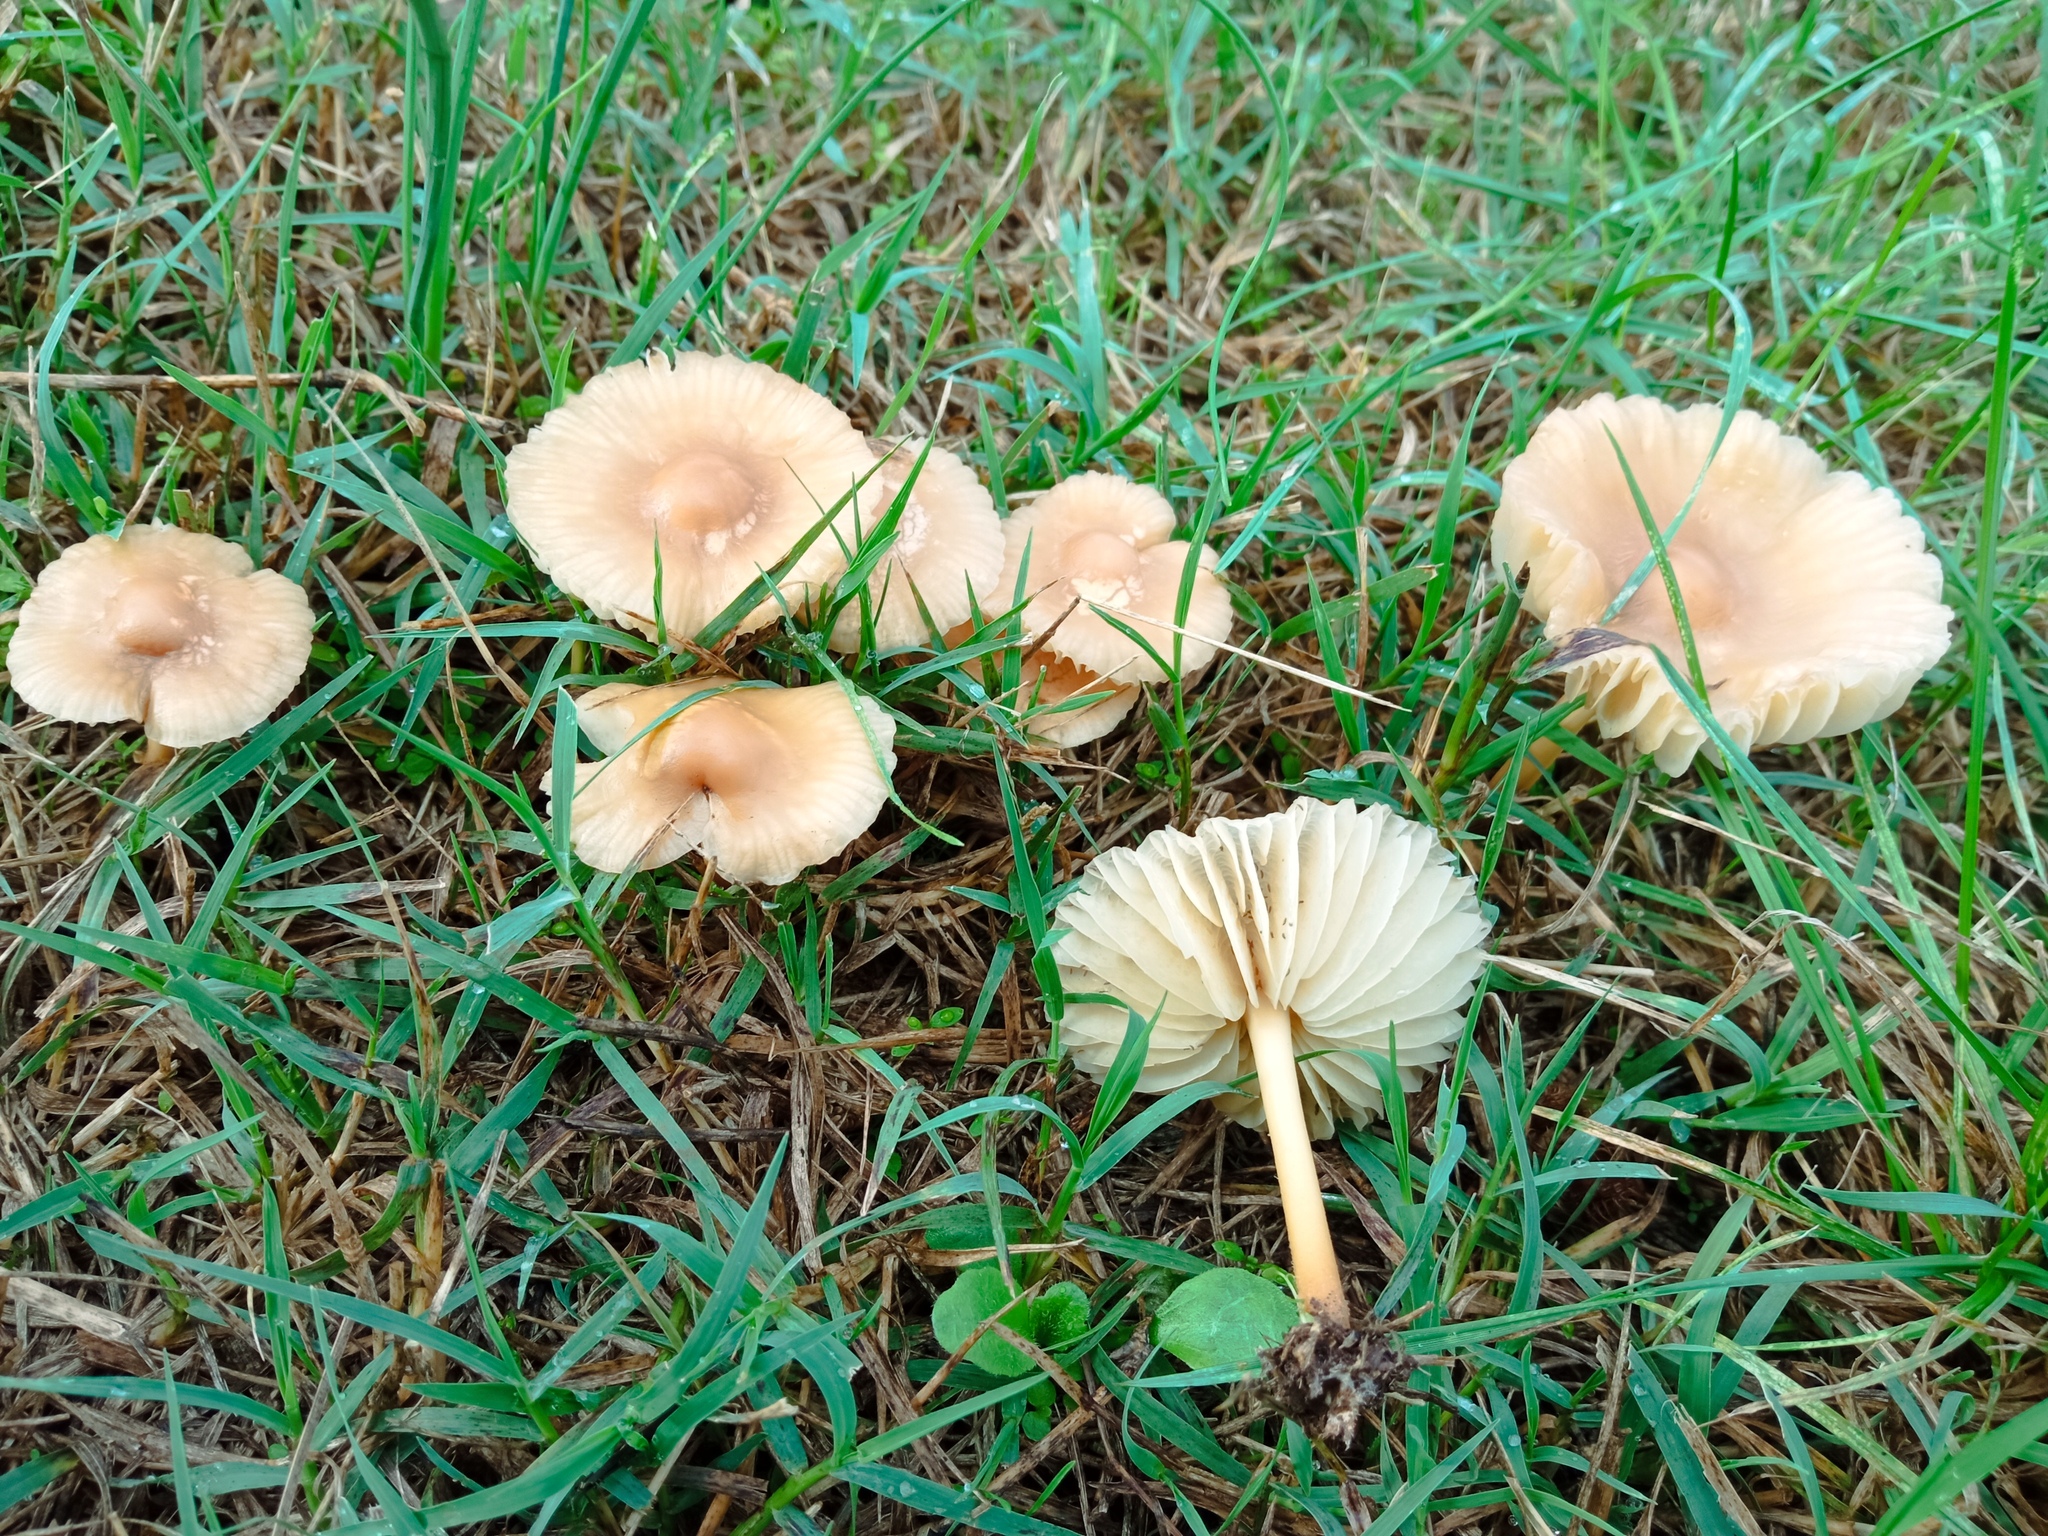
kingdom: Fungi
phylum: Basidiomycota
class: Agaricomycetes
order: Agaricales
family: Marasmiaceae
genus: Marasmius
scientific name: Marasmius oreades
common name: Fairy ring champignon
